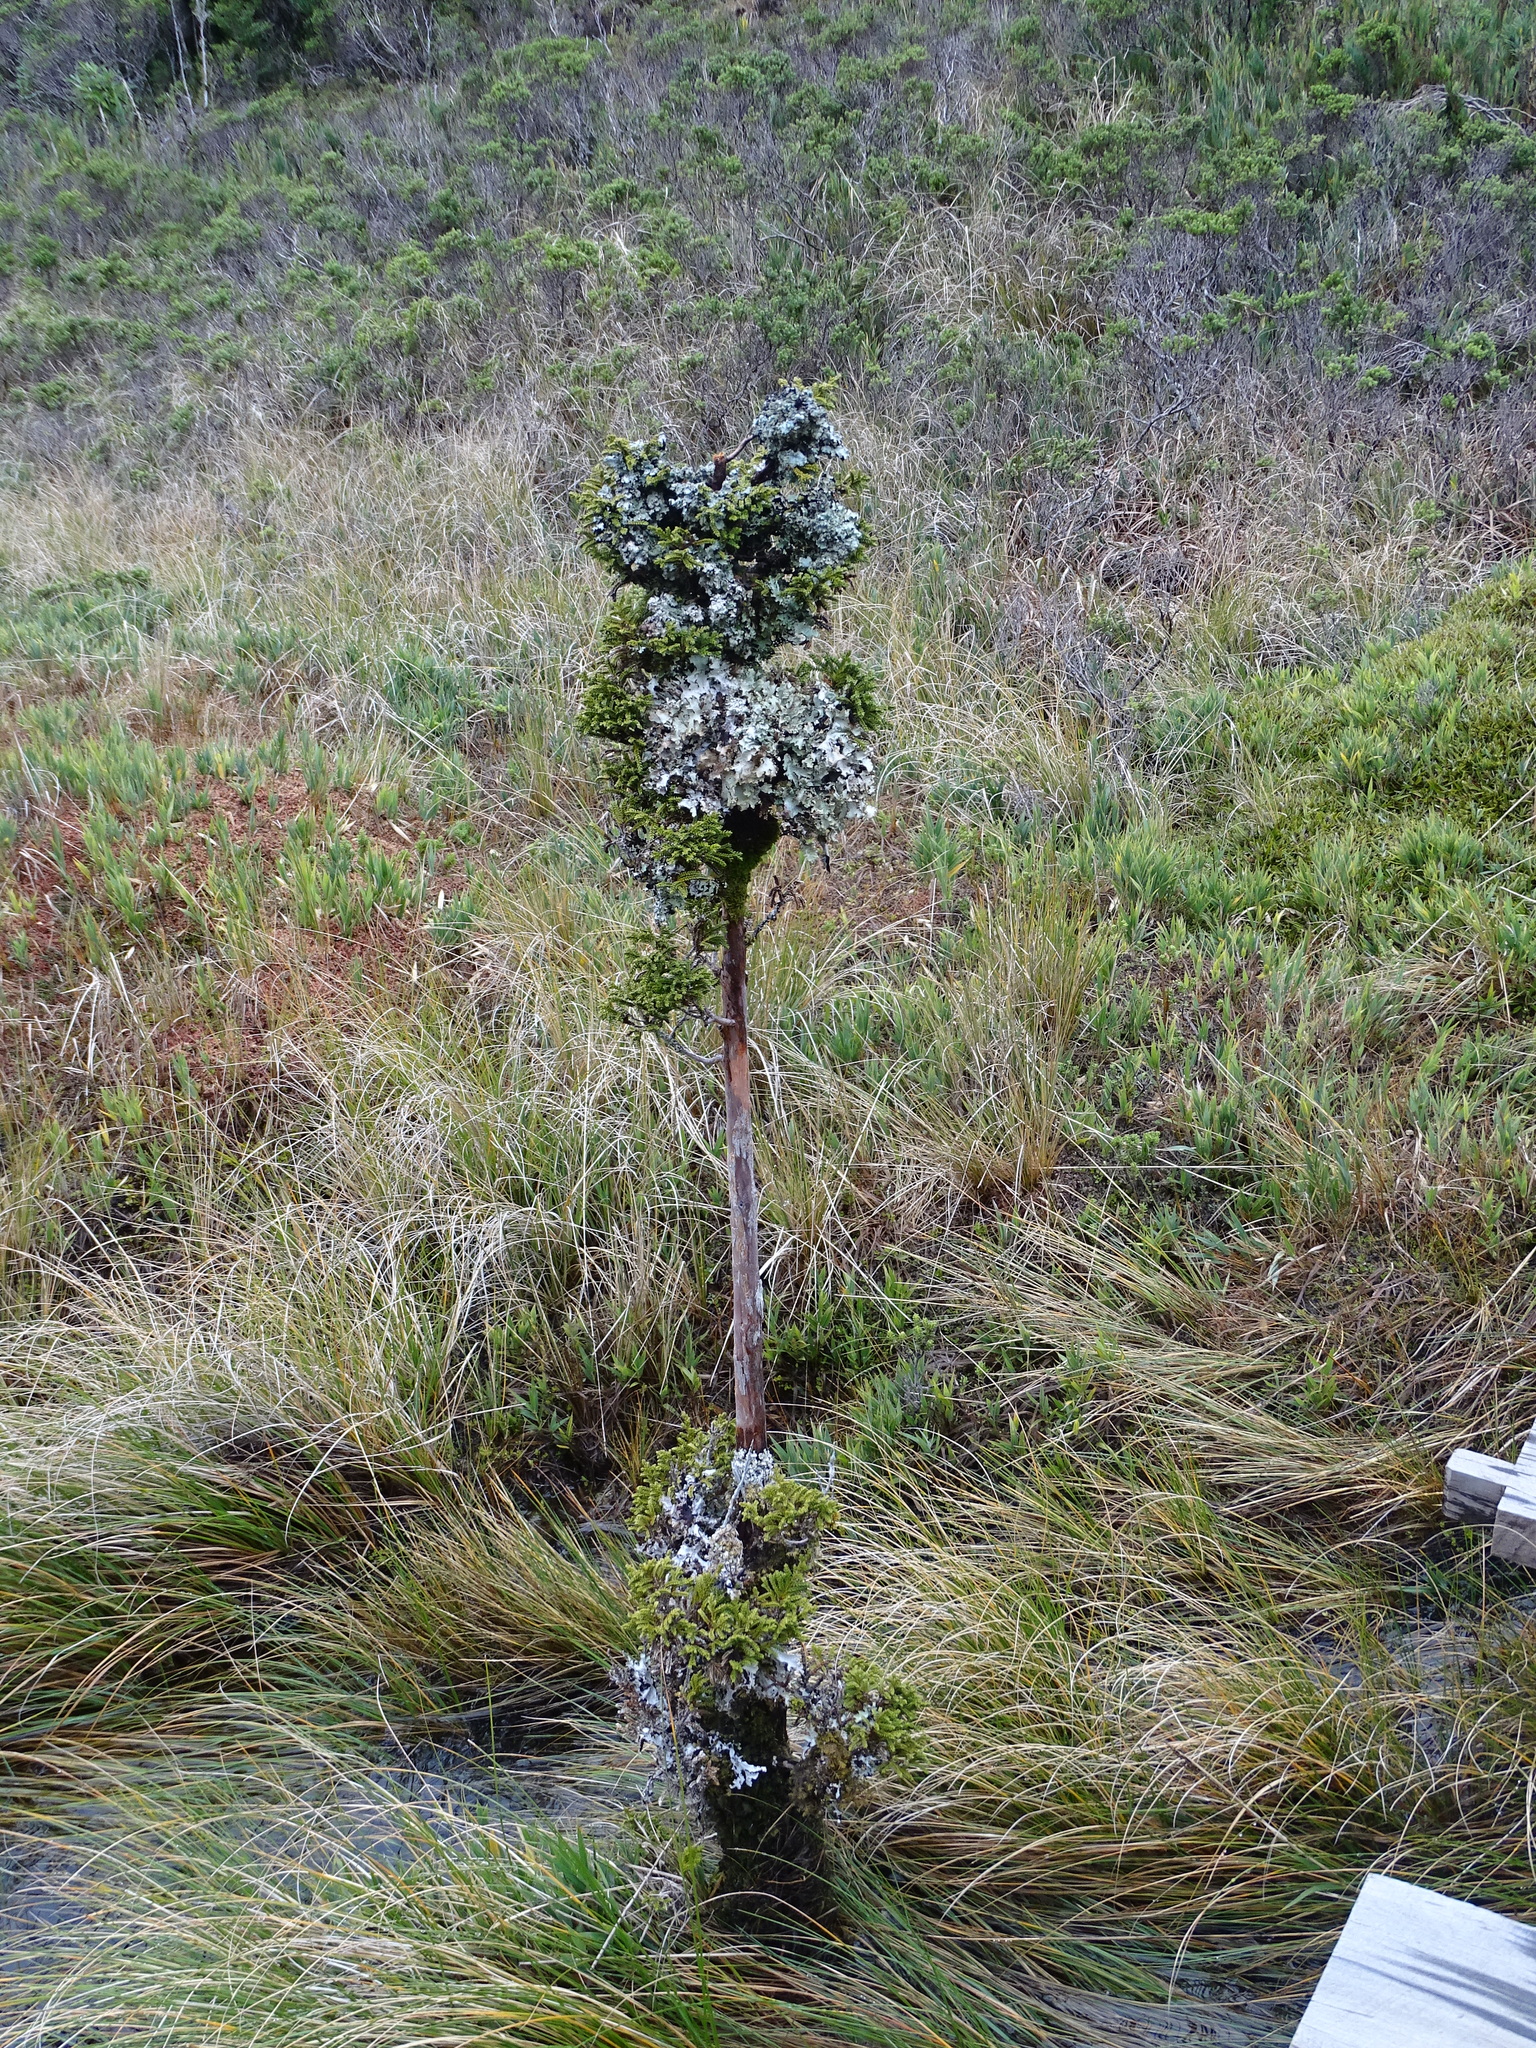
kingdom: Plantae
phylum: Tracheophyta
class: Pinopsida
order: Pinales
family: Cupressaceae
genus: Pilgerodendron
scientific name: Pilgerodendron uviferum
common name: Guaitecas cypress
